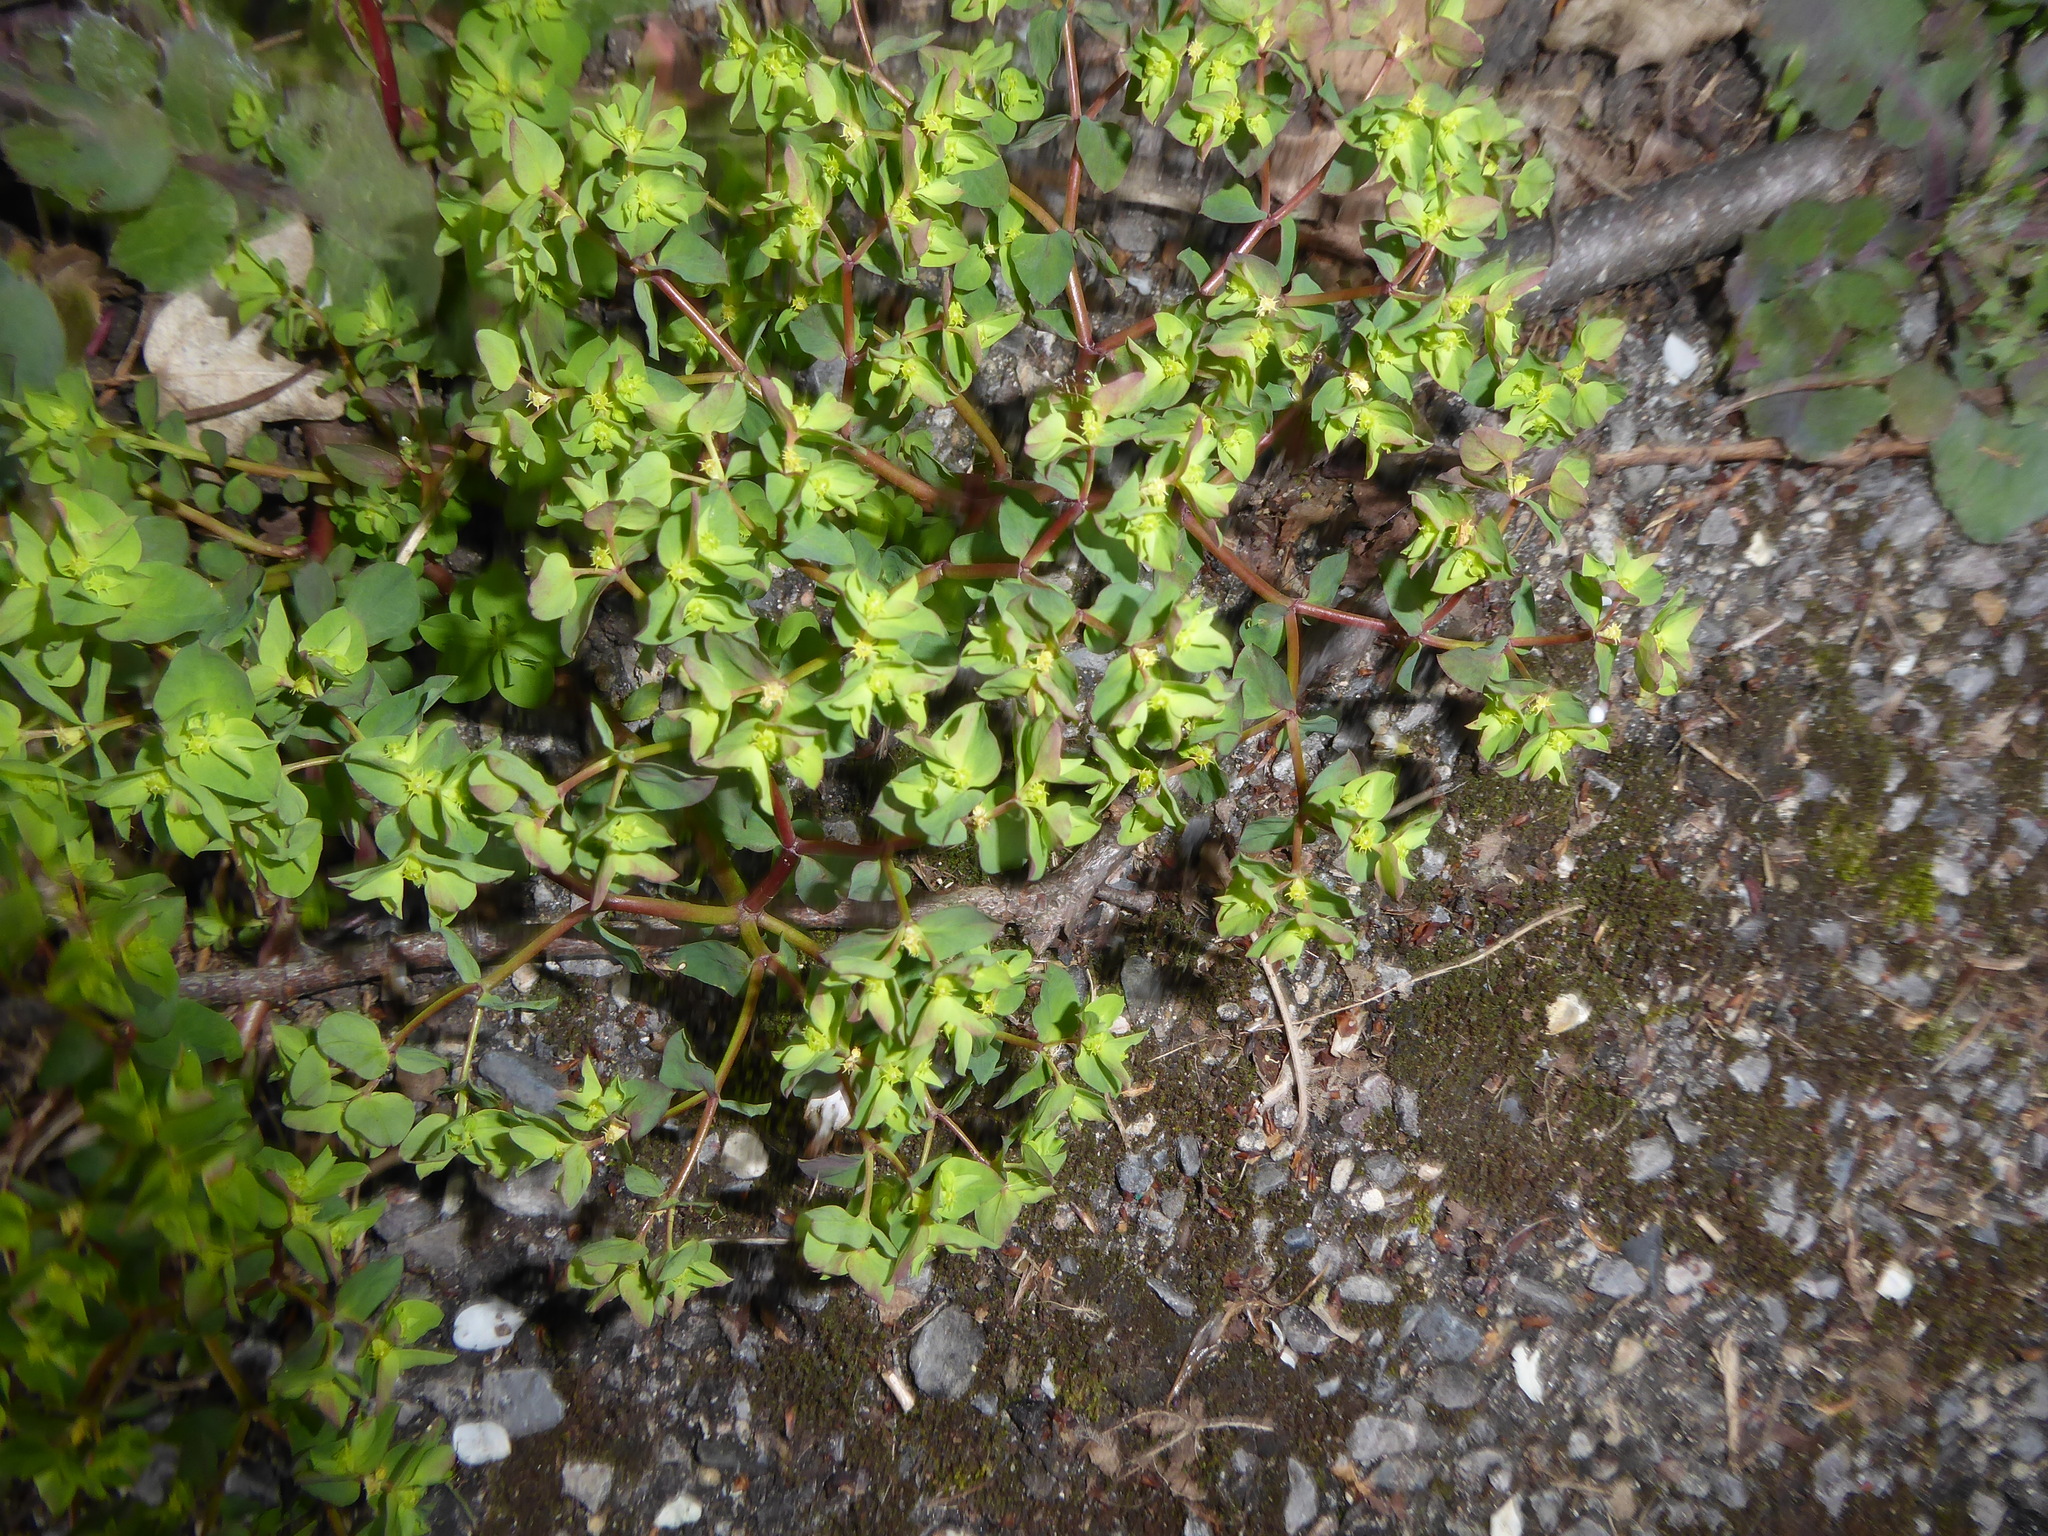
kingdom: Plantae
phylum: Tracheophyta
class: Magnoliopsida
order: Malpighiales
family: Euphorbiaceae
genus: Euphorbia
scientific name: Euphorbia peplus
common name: Petty spurge
